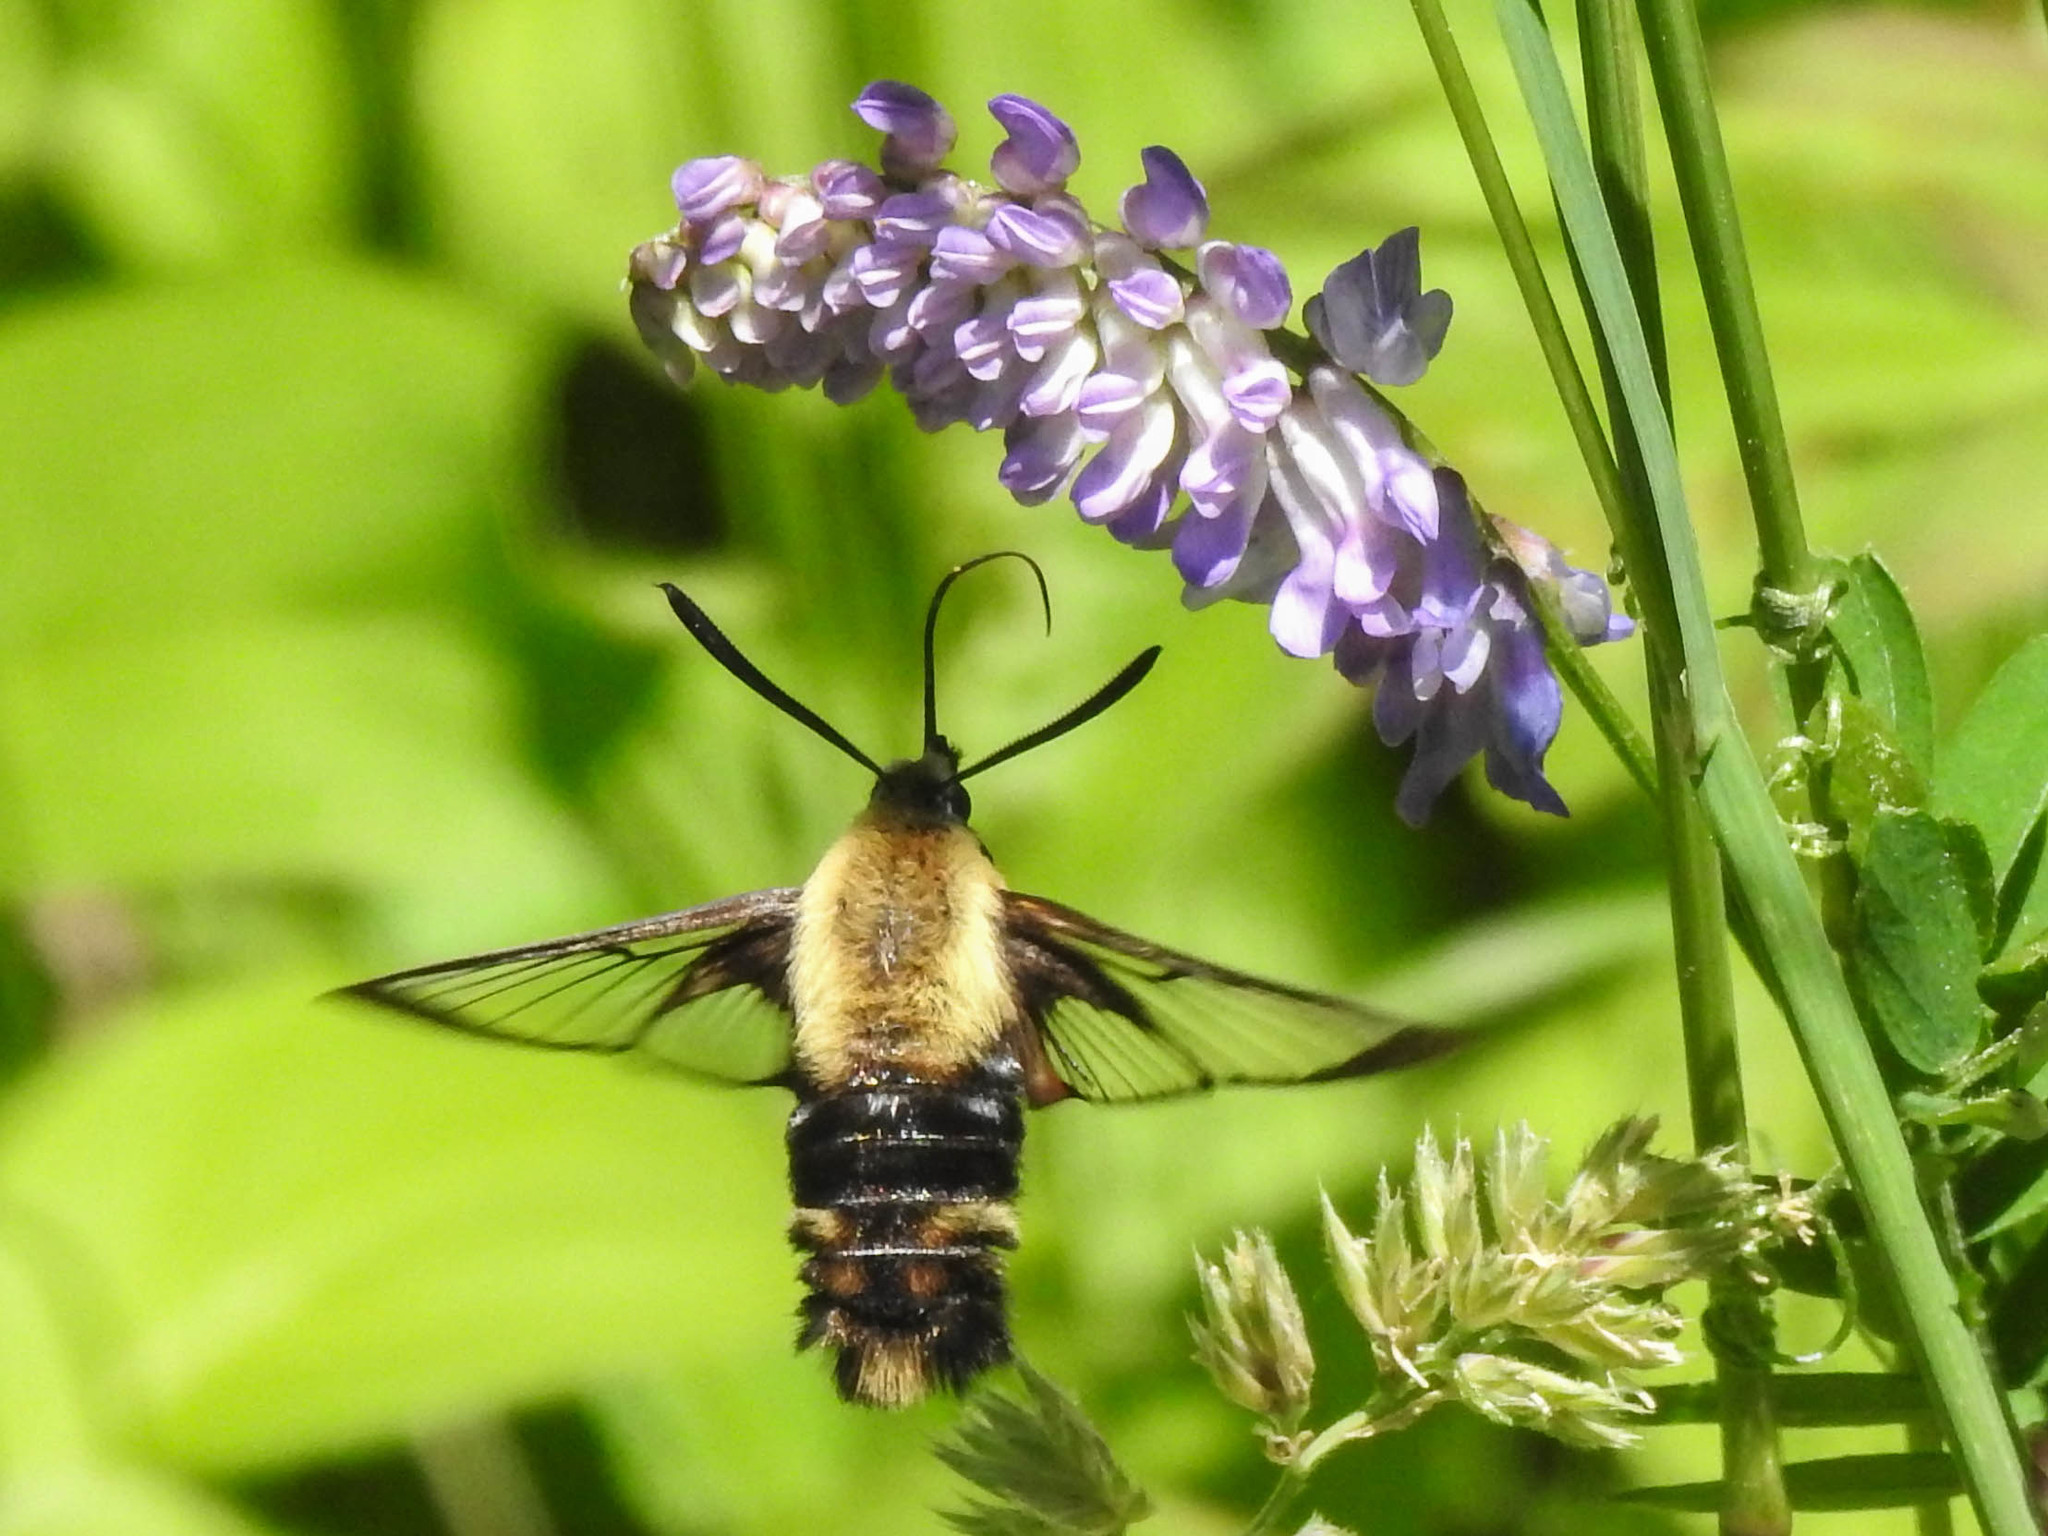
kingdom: Animalia
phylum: Arthropoda
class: Insecta
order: Lepidoptera
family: Sphingidae
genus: Hemaris
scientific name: Hemaris diffinis
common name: Bumblebee moth
